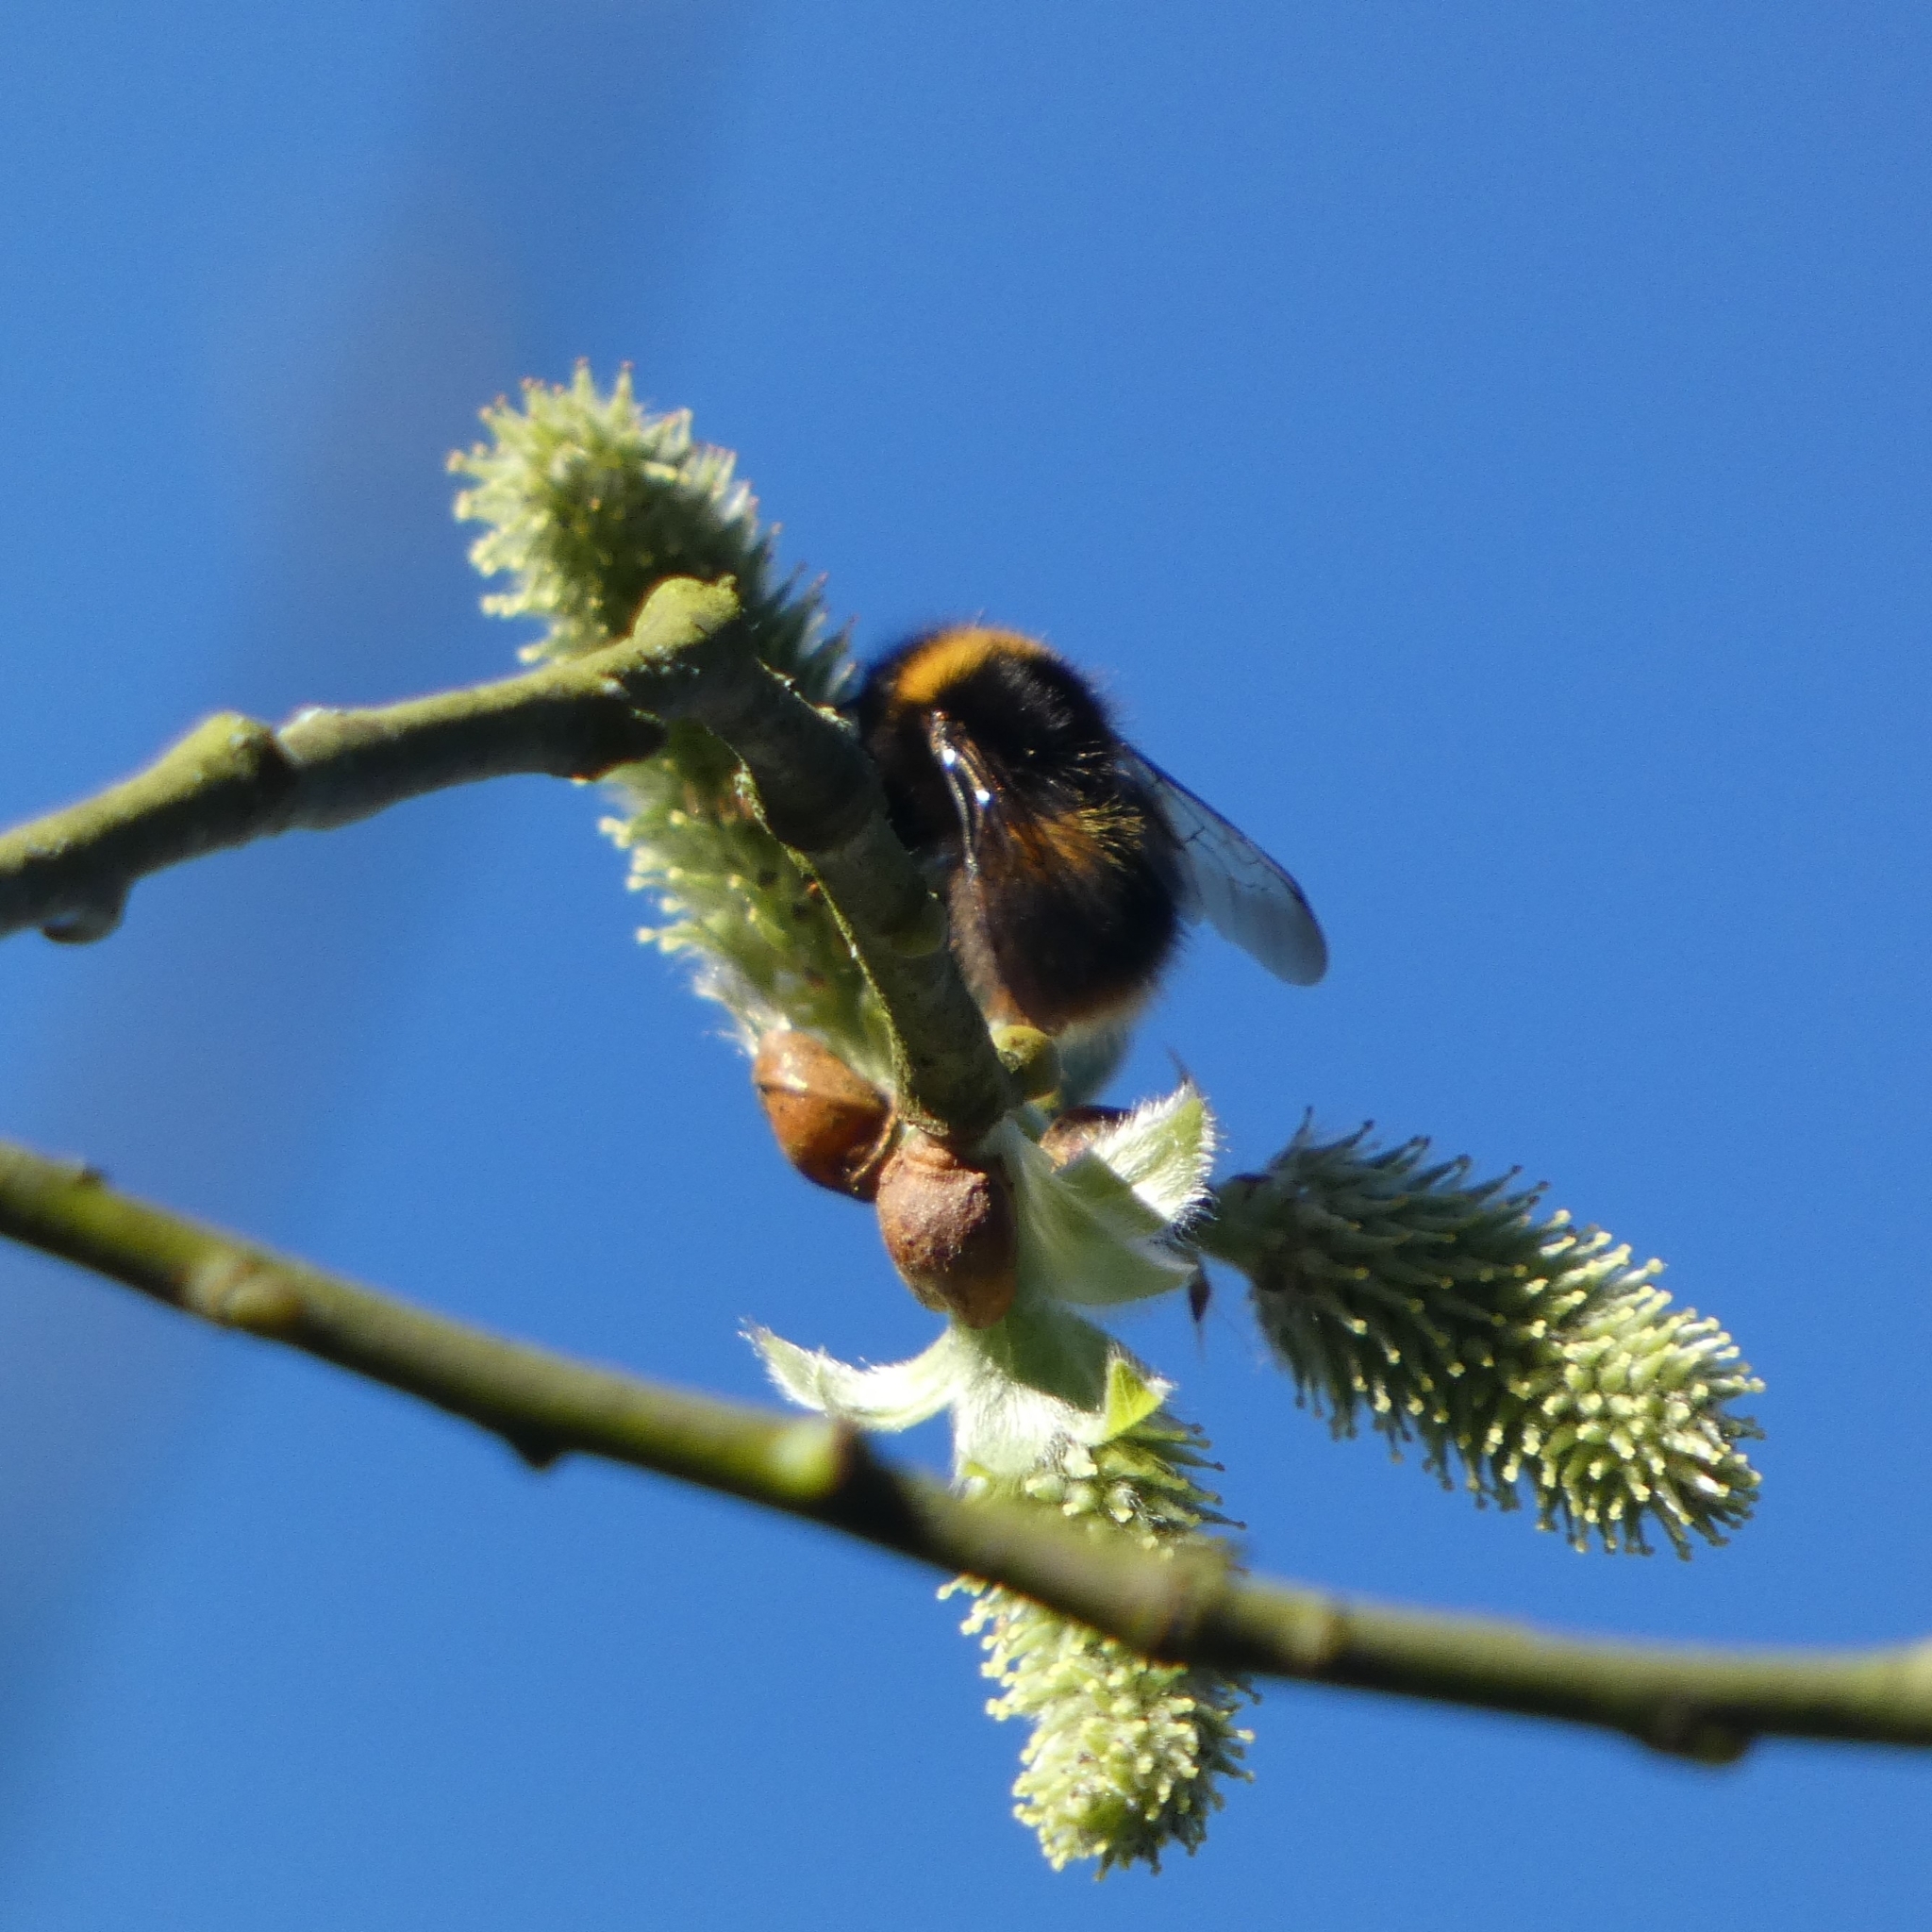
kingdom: Animalia
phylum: Arthropoda
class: Insecta
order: Hymenoptera
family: Apidae
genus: Bombus
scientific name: Bombus pratorum
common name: Early humble-bee
